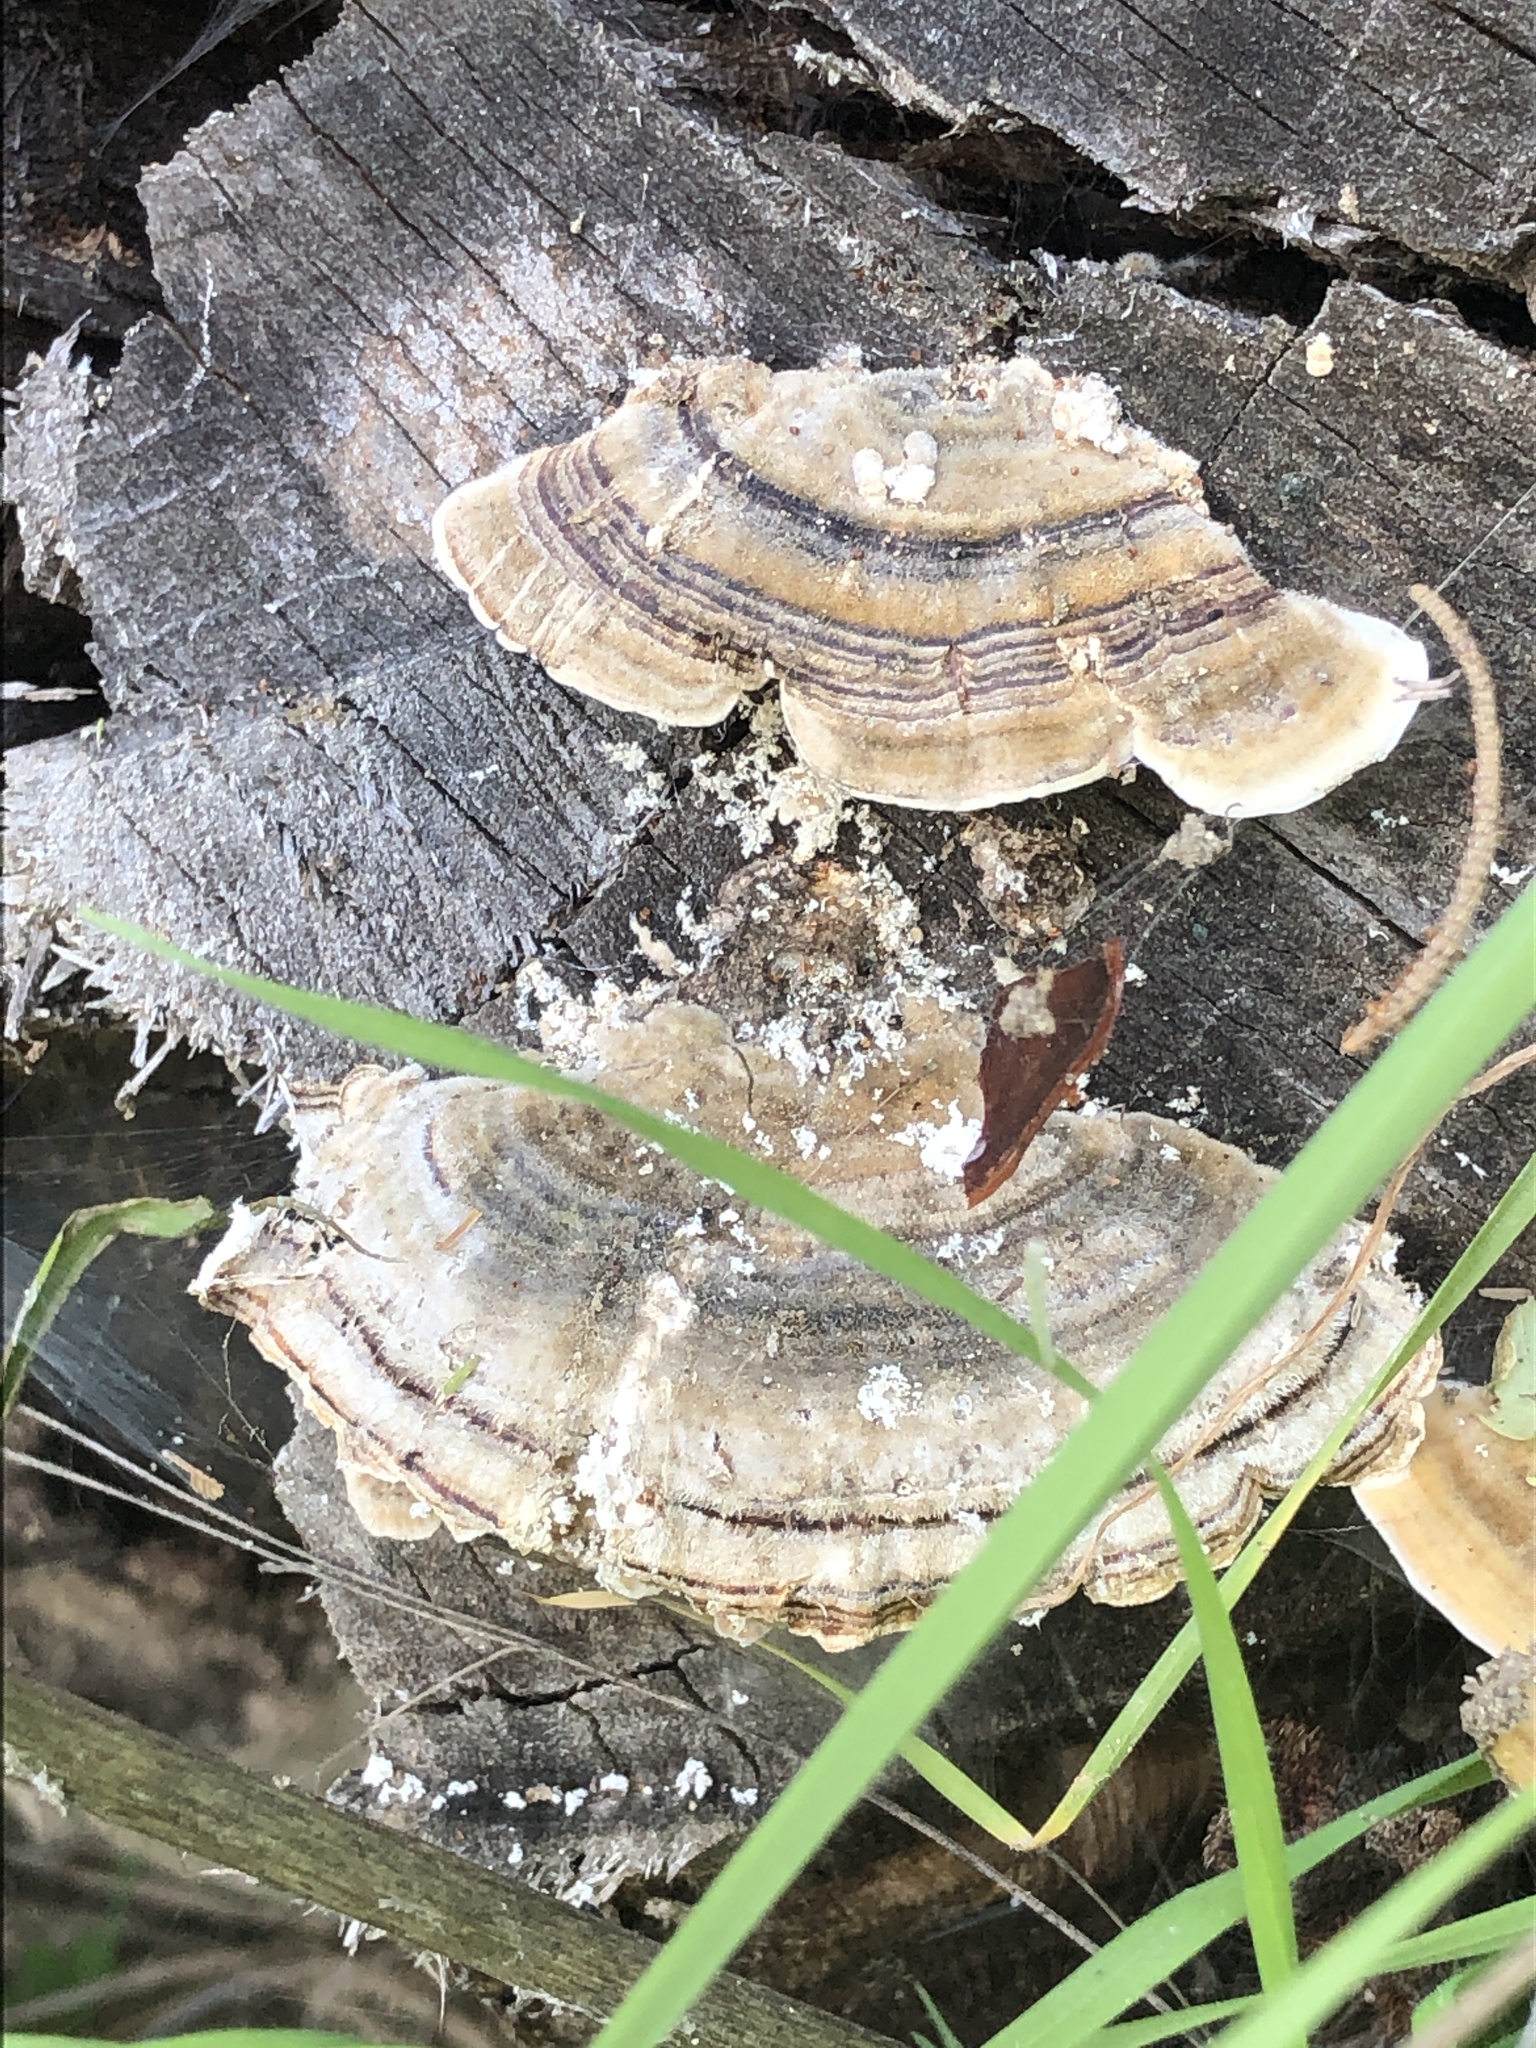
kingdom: Fungi
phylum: Basidiomycota
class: Agaricomycetes
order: Polyporales
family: Polyporaceae
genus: Trametes
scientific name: Trametes versicolor
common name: Turkeytail
